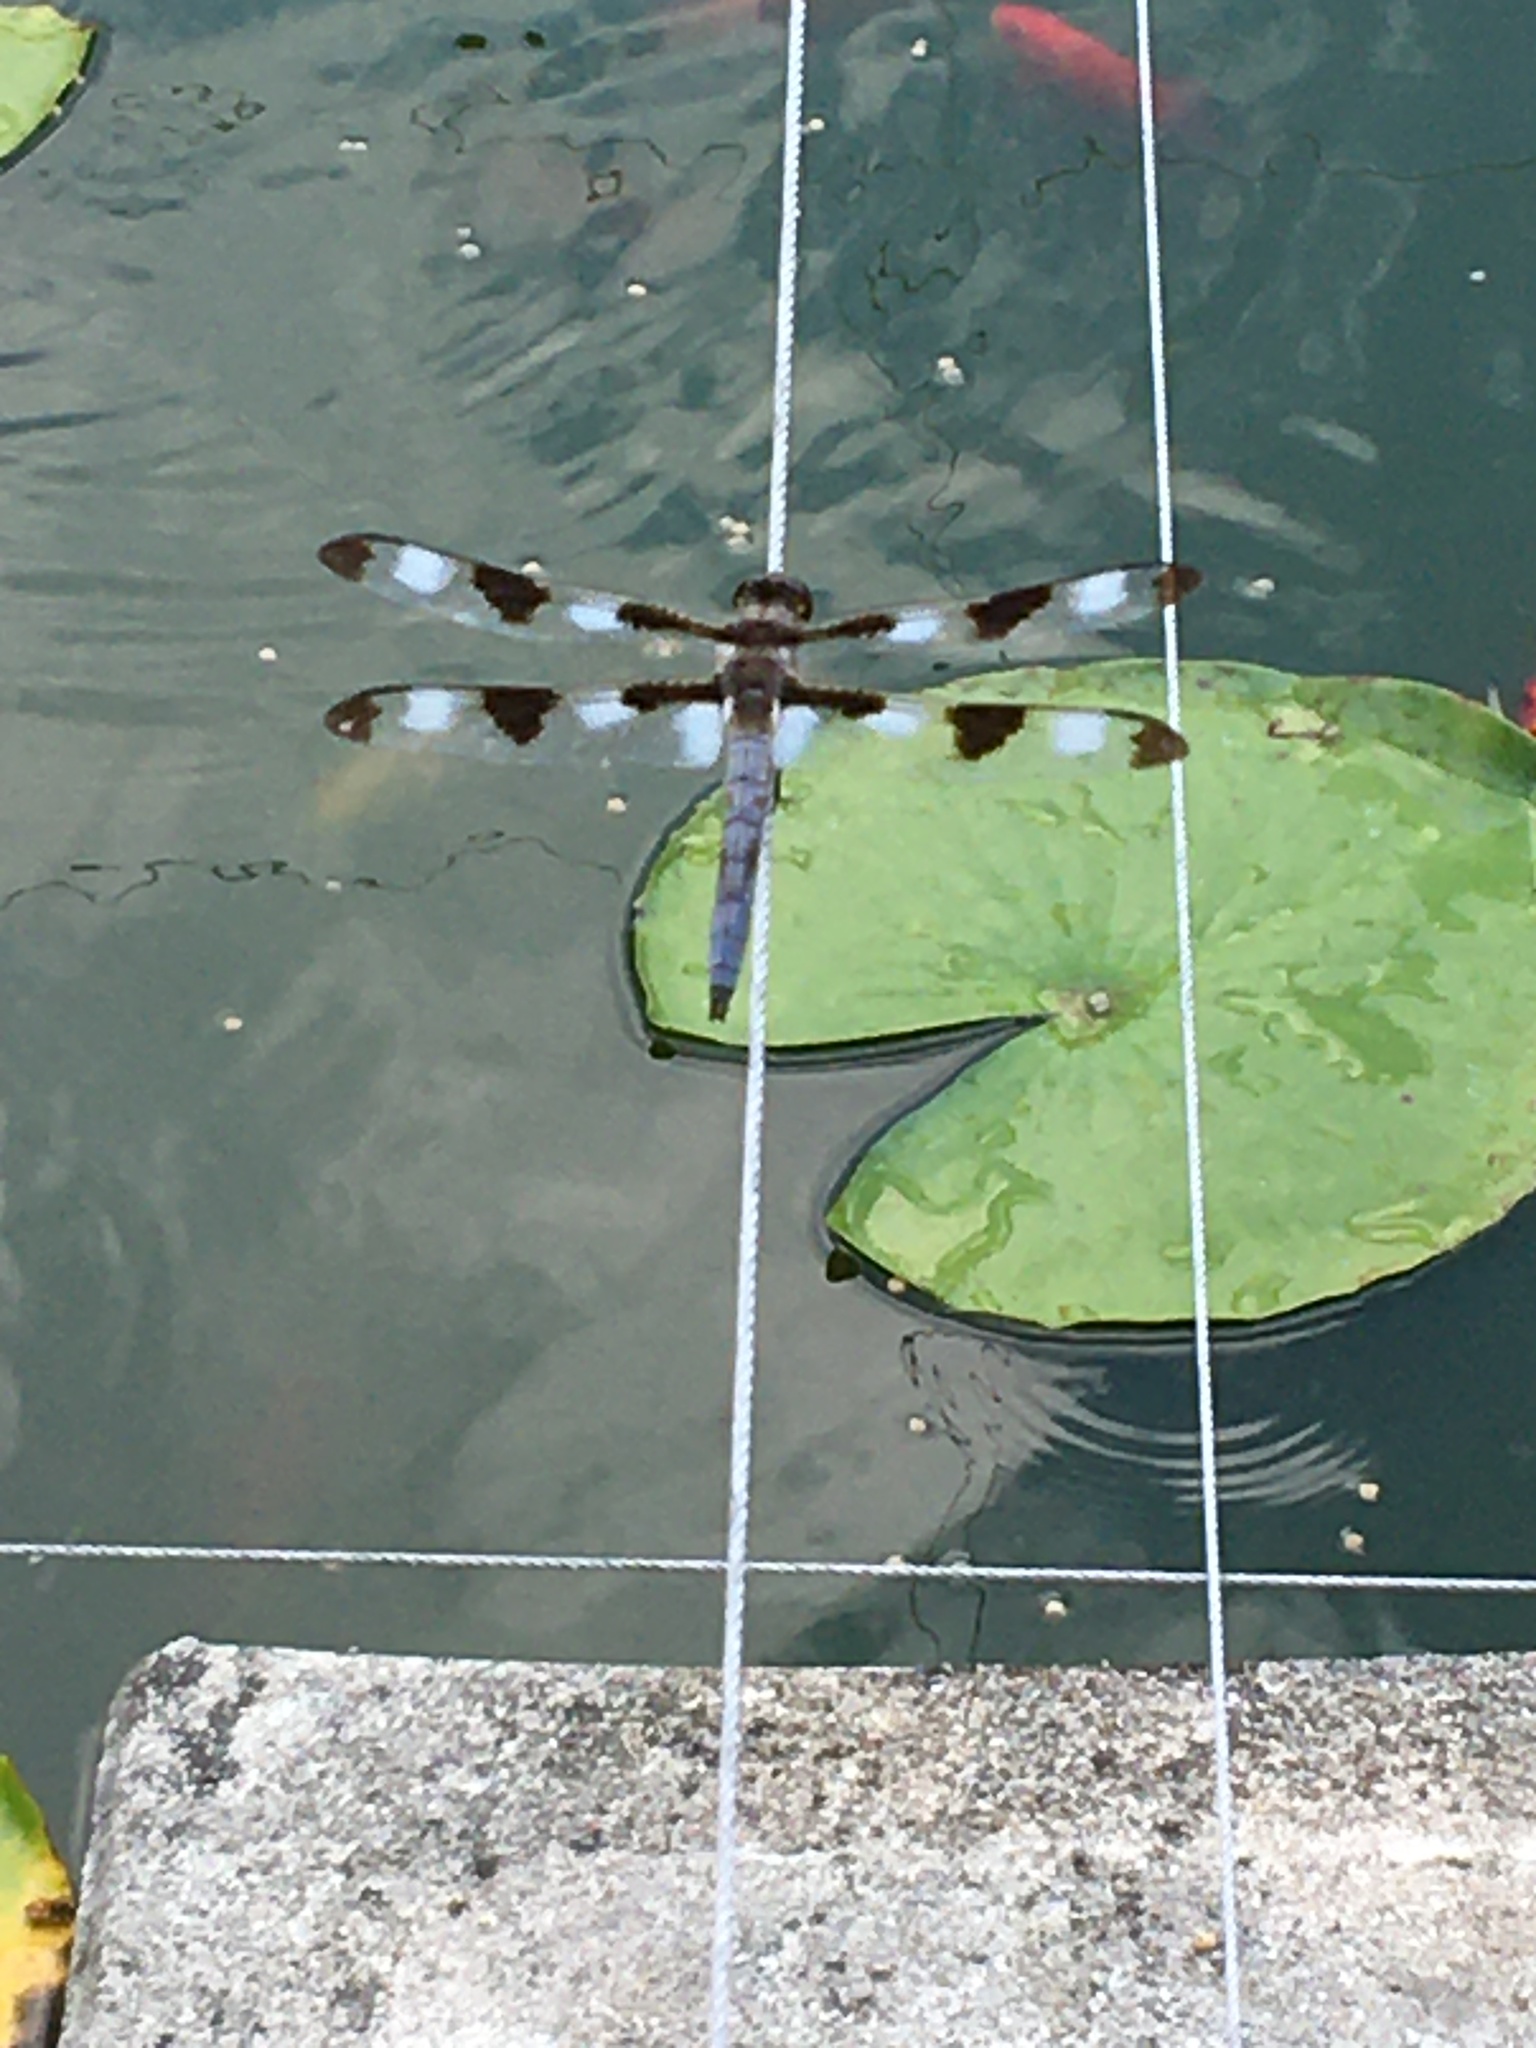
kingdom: Animalia
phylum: Arthropoda
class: Insecta
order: Odonata
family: Libellulidae
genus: Libellula
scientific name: Libellula pulchella
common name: Twelve-spotted skimmer
